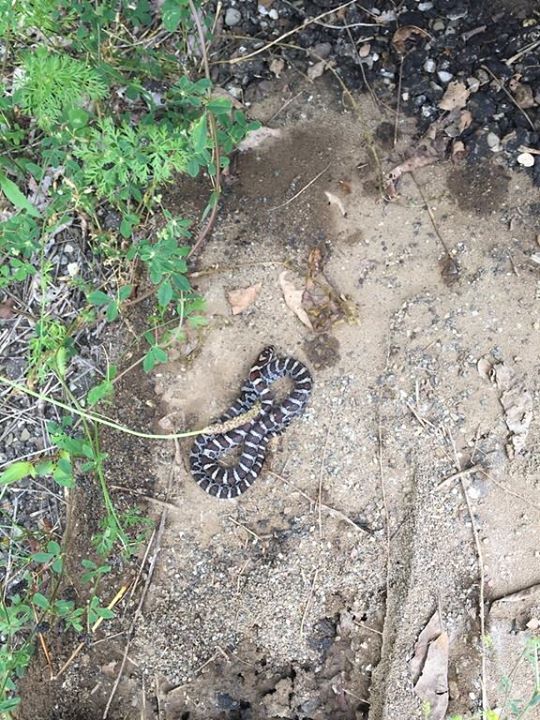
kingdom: Animalia
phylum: Chordata
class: Squamata
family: Colubridae
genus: Lampropeltis
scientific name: Lampropeltis triangulum
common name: Eastern milksnake
